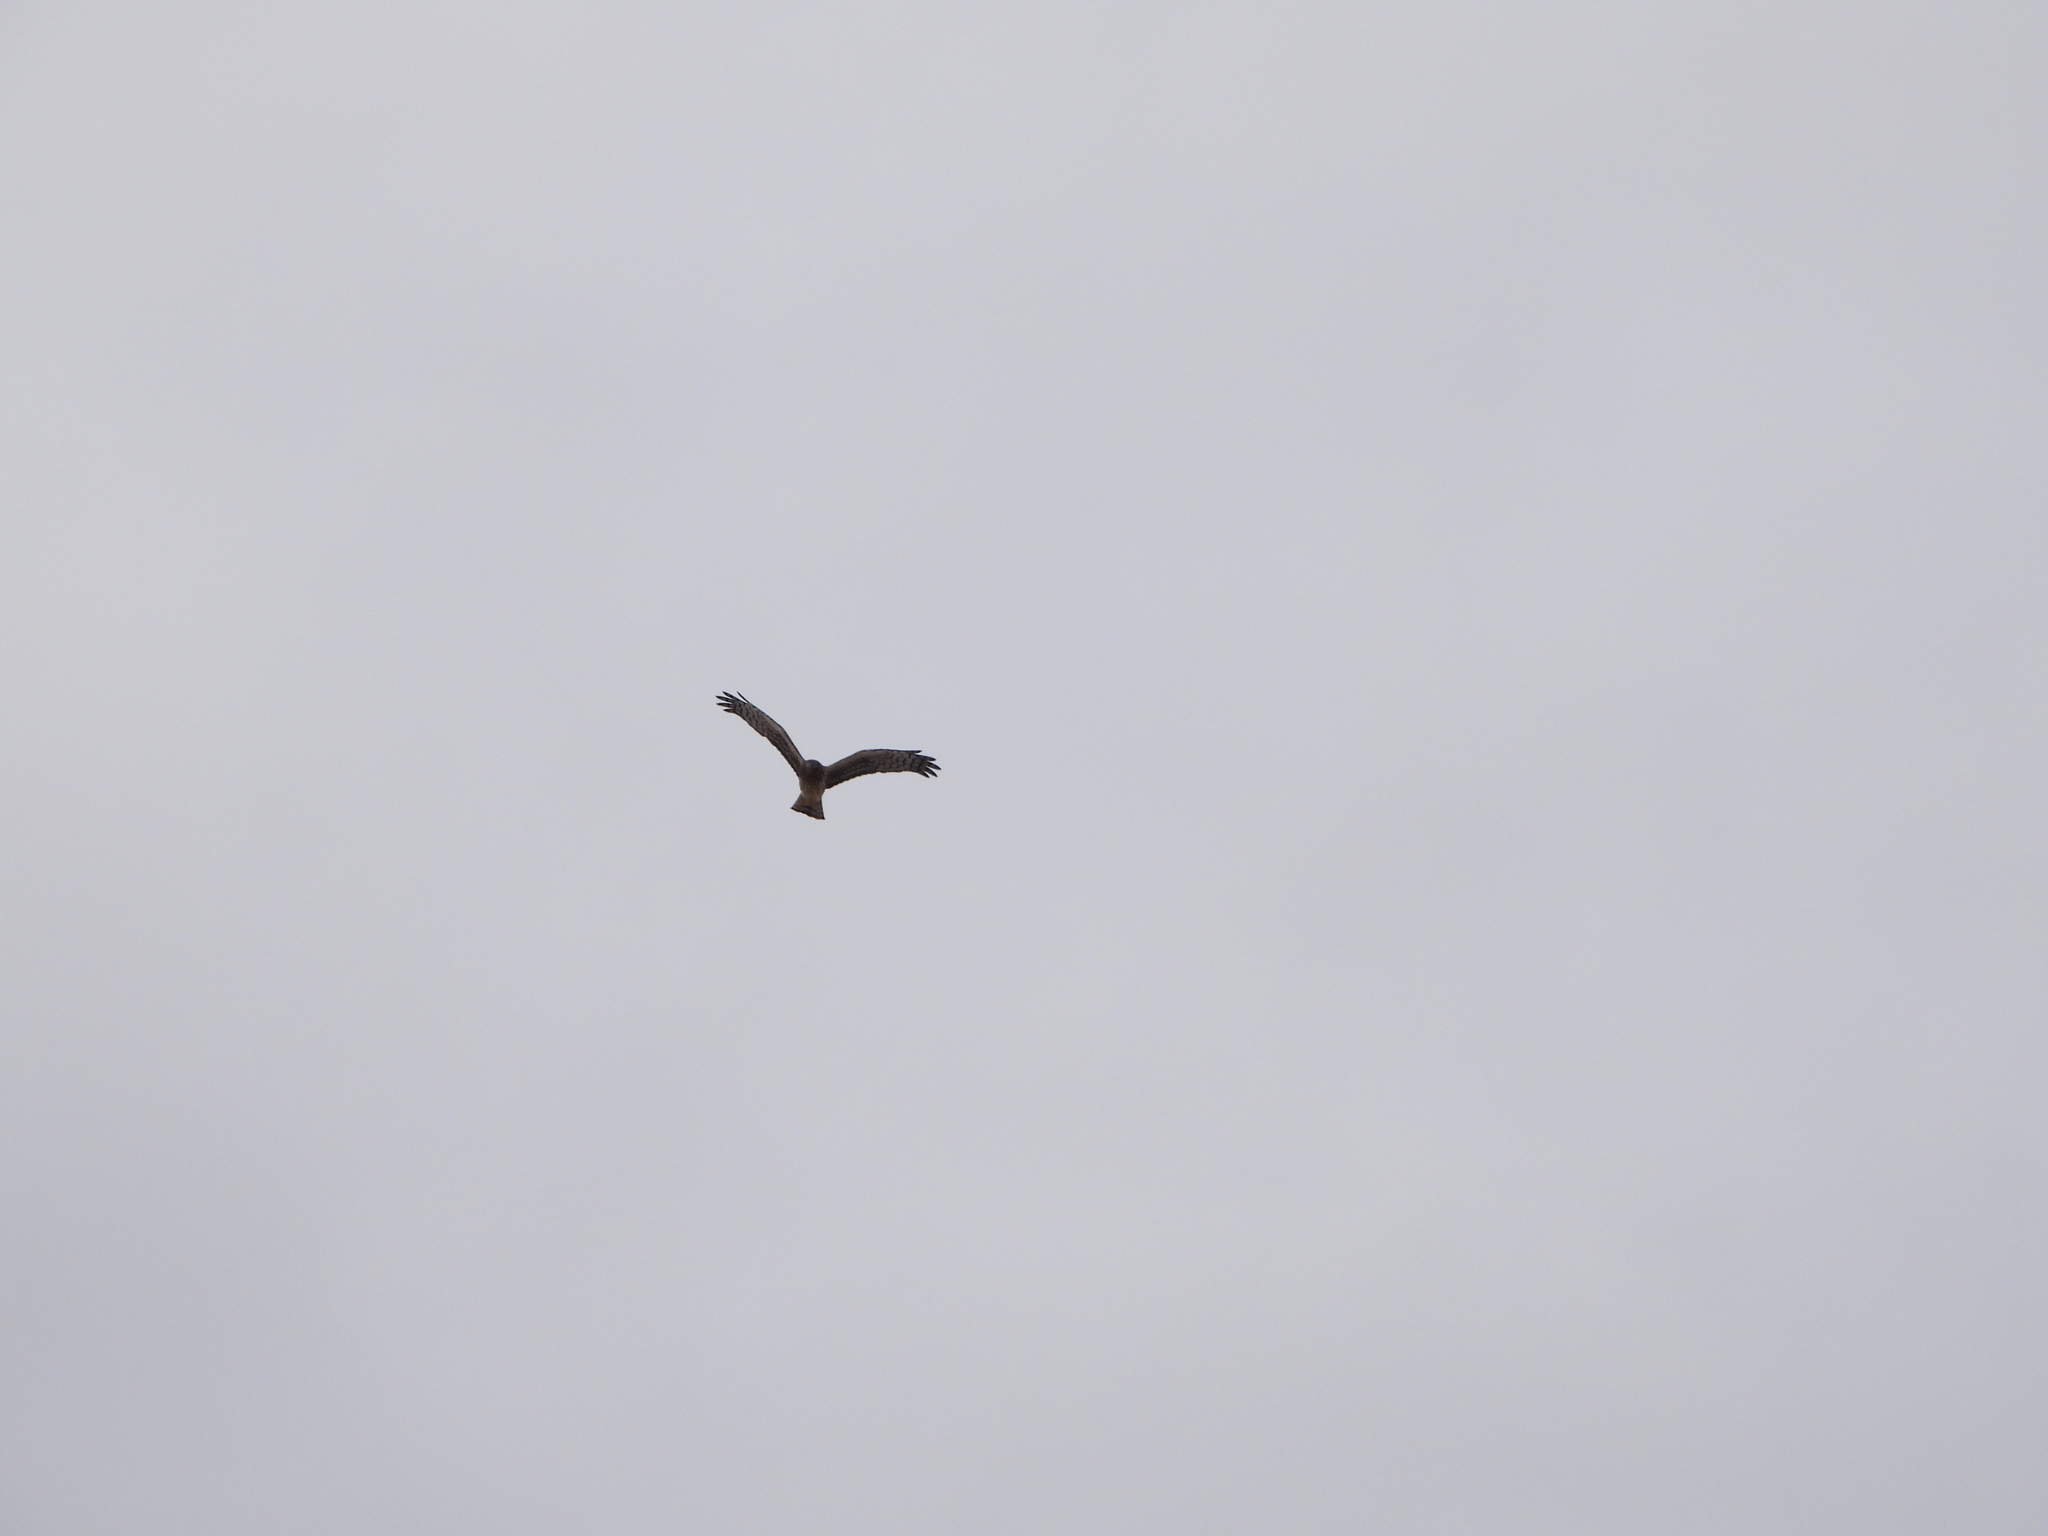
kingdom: Animalia
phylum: Chordata
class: Aves
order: Accipitriformes
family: Accipitridae
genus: Circus
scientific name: Circus cyaneus
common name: Hen harrier
